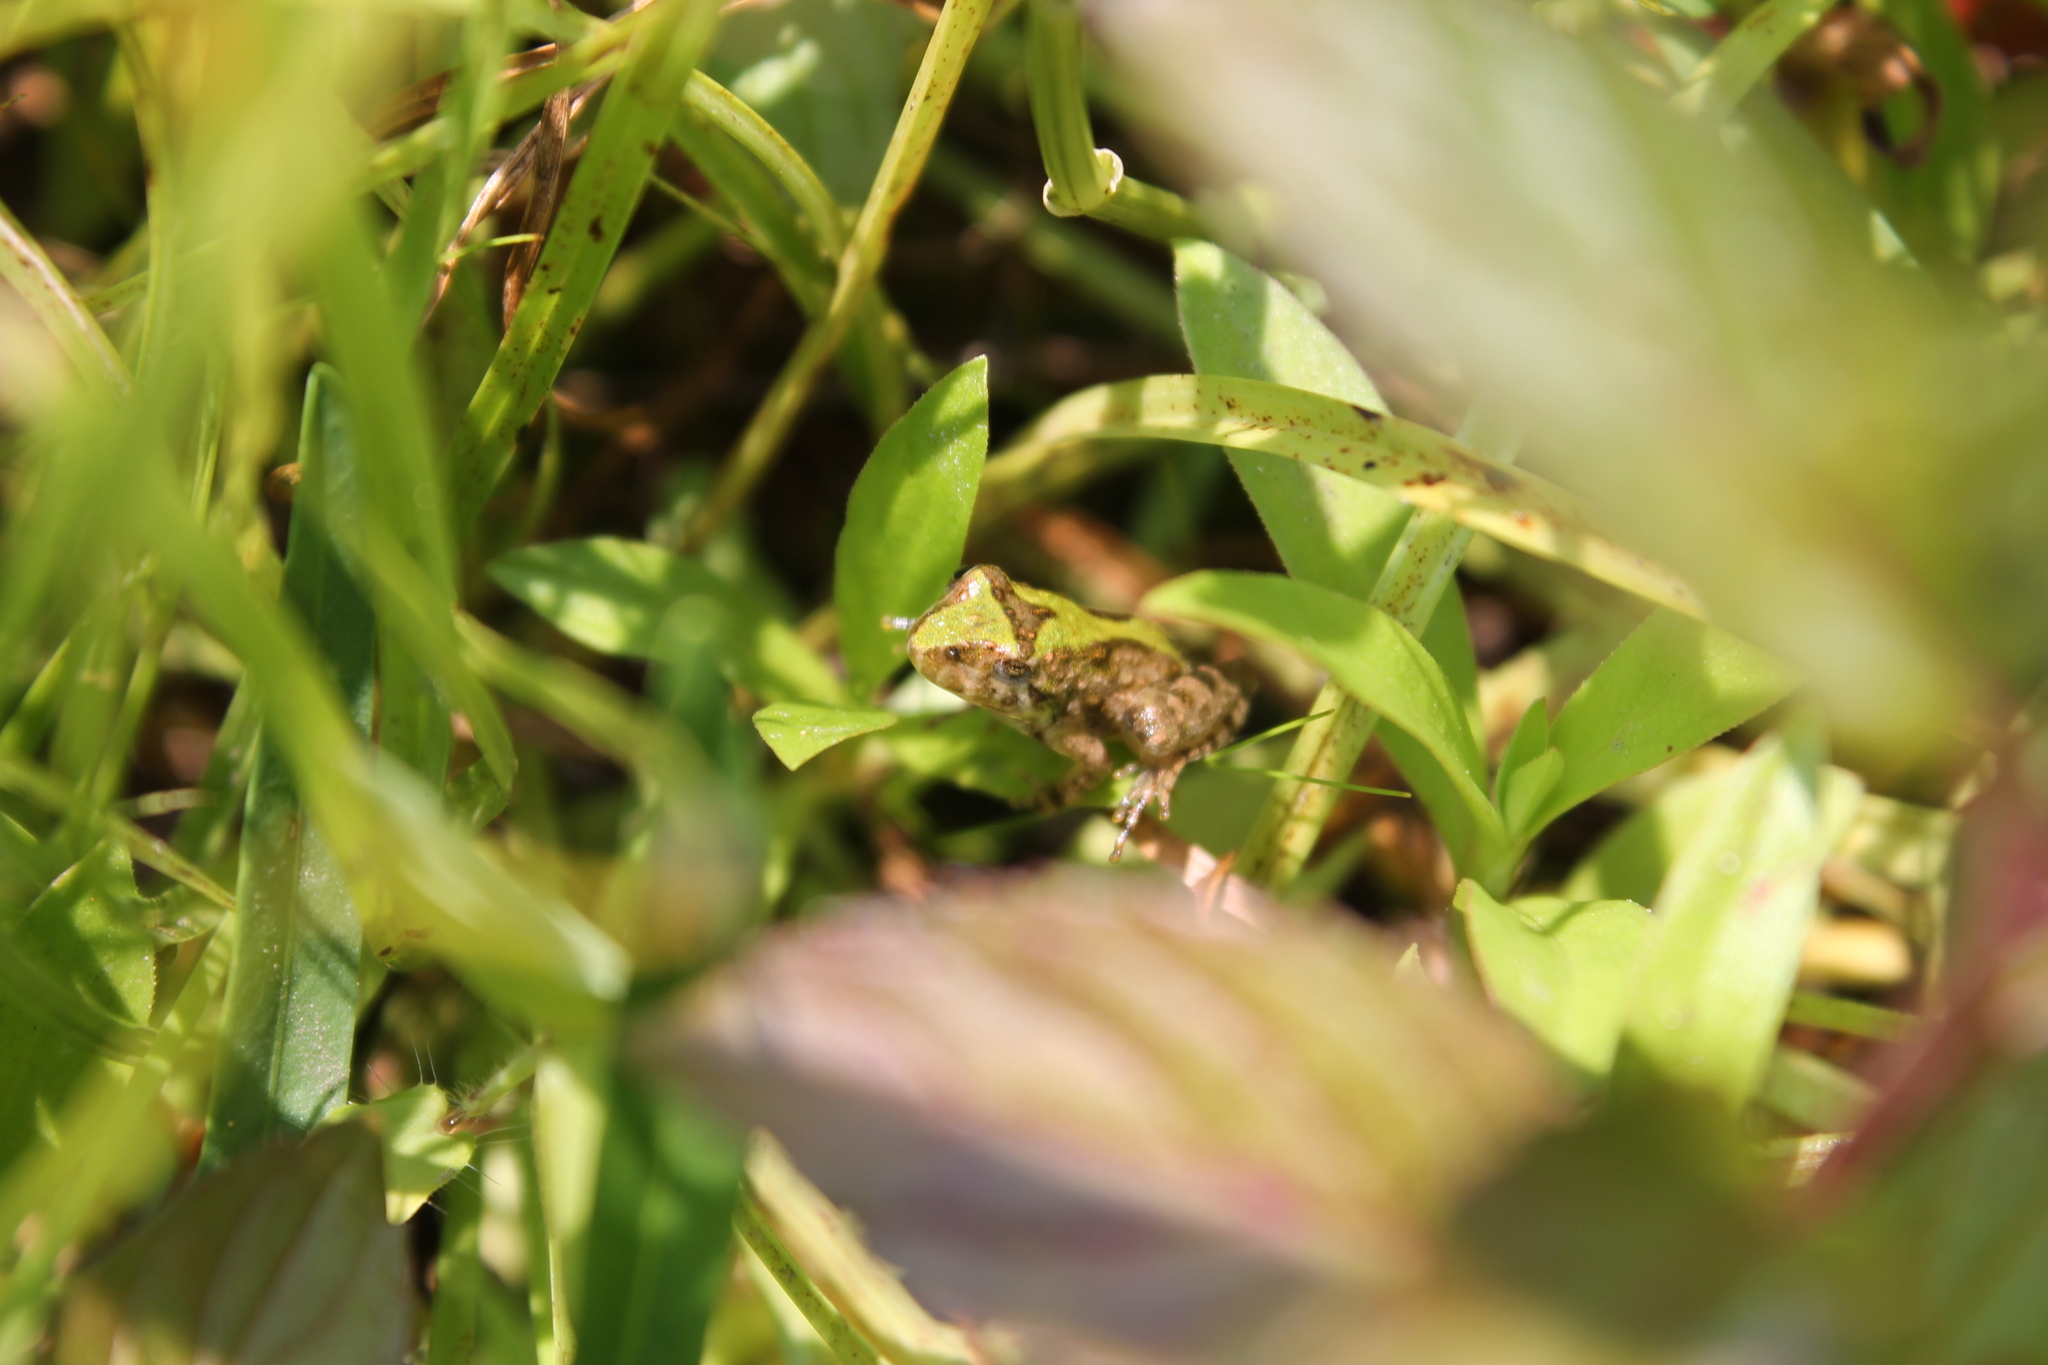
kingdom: Animalia
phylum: Chordata
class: Amphibia
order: Anura
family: Hylidae
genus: Acris
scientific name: Acris crepitans
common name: Northern cricket frog
